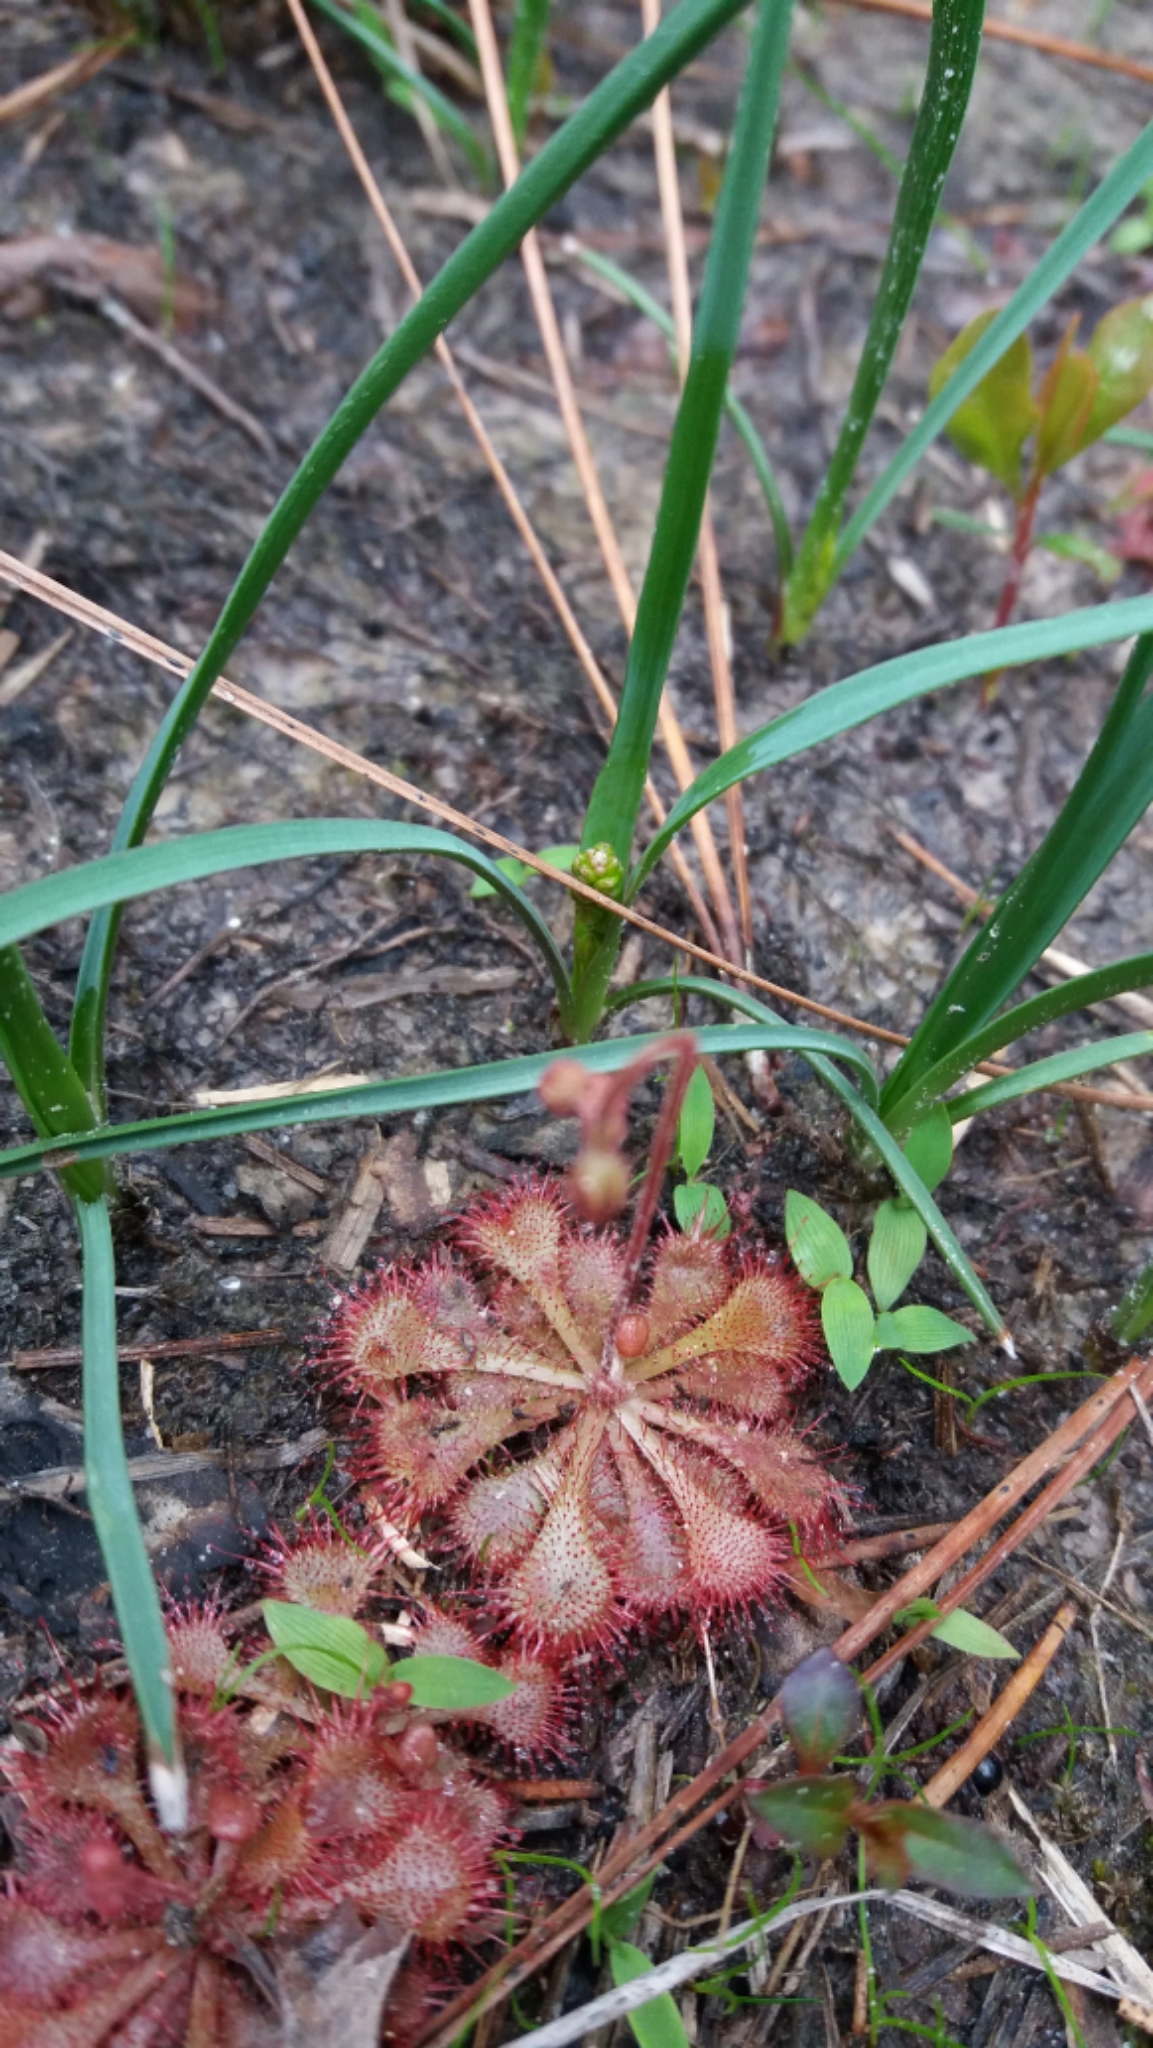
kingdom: Plantae
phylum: Tracheophyta
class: Magnoliopsida
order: Caryophyllales
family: Droseraceae
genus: Drosera
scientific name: Drosera brevifolia
